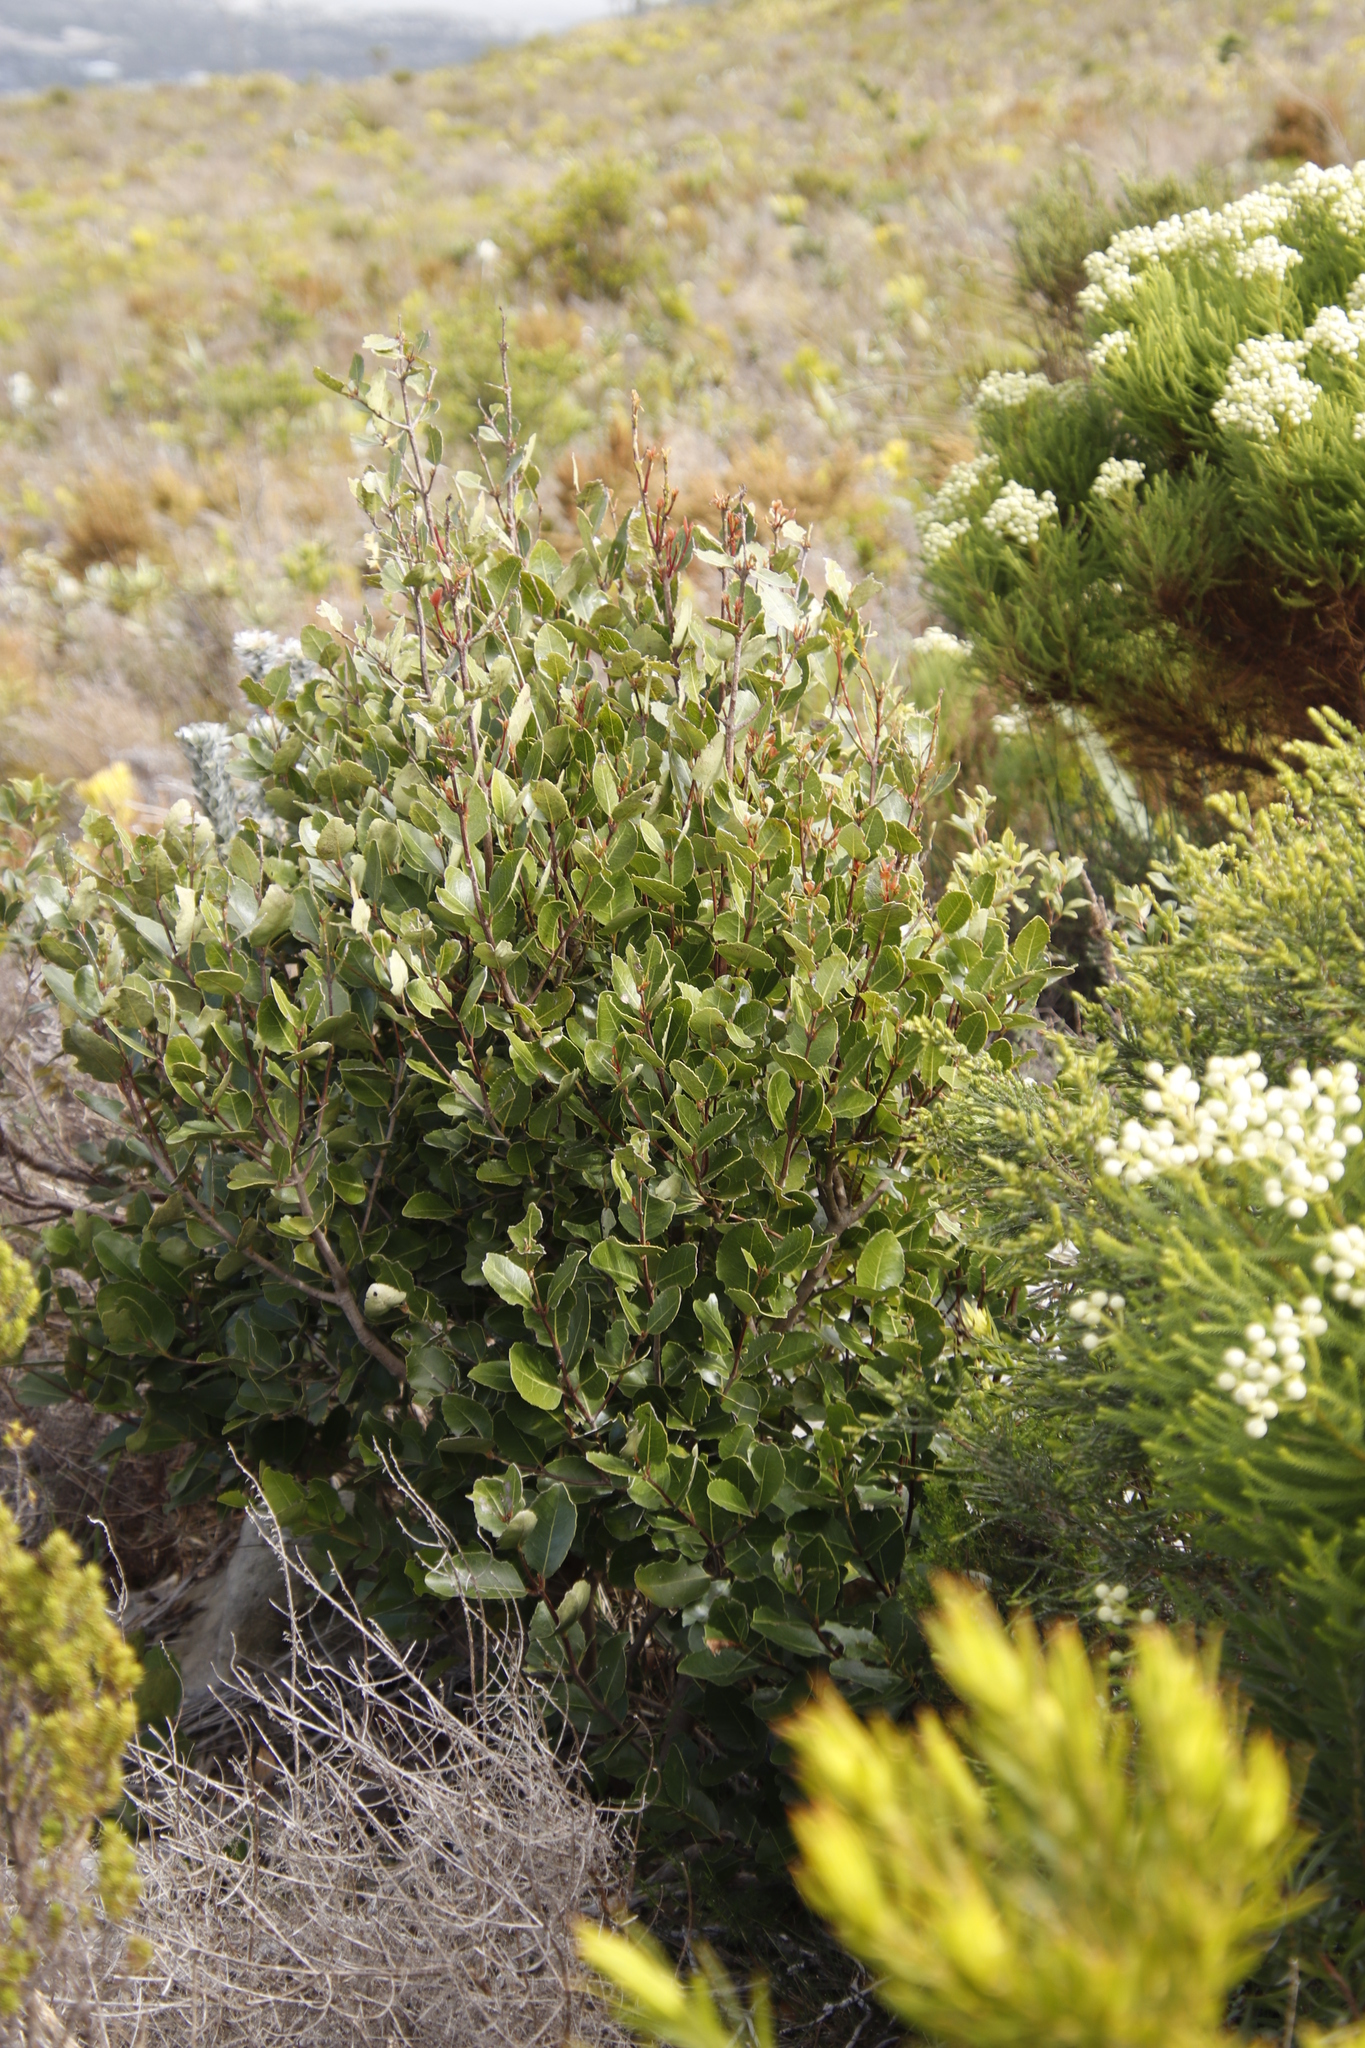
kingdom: Plantae
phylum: Tracheophyta
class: Magnoliopsida
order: Celastrales
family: Celastraceae
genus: Cassine
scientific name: Cassine peragua
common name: Cape saffron
